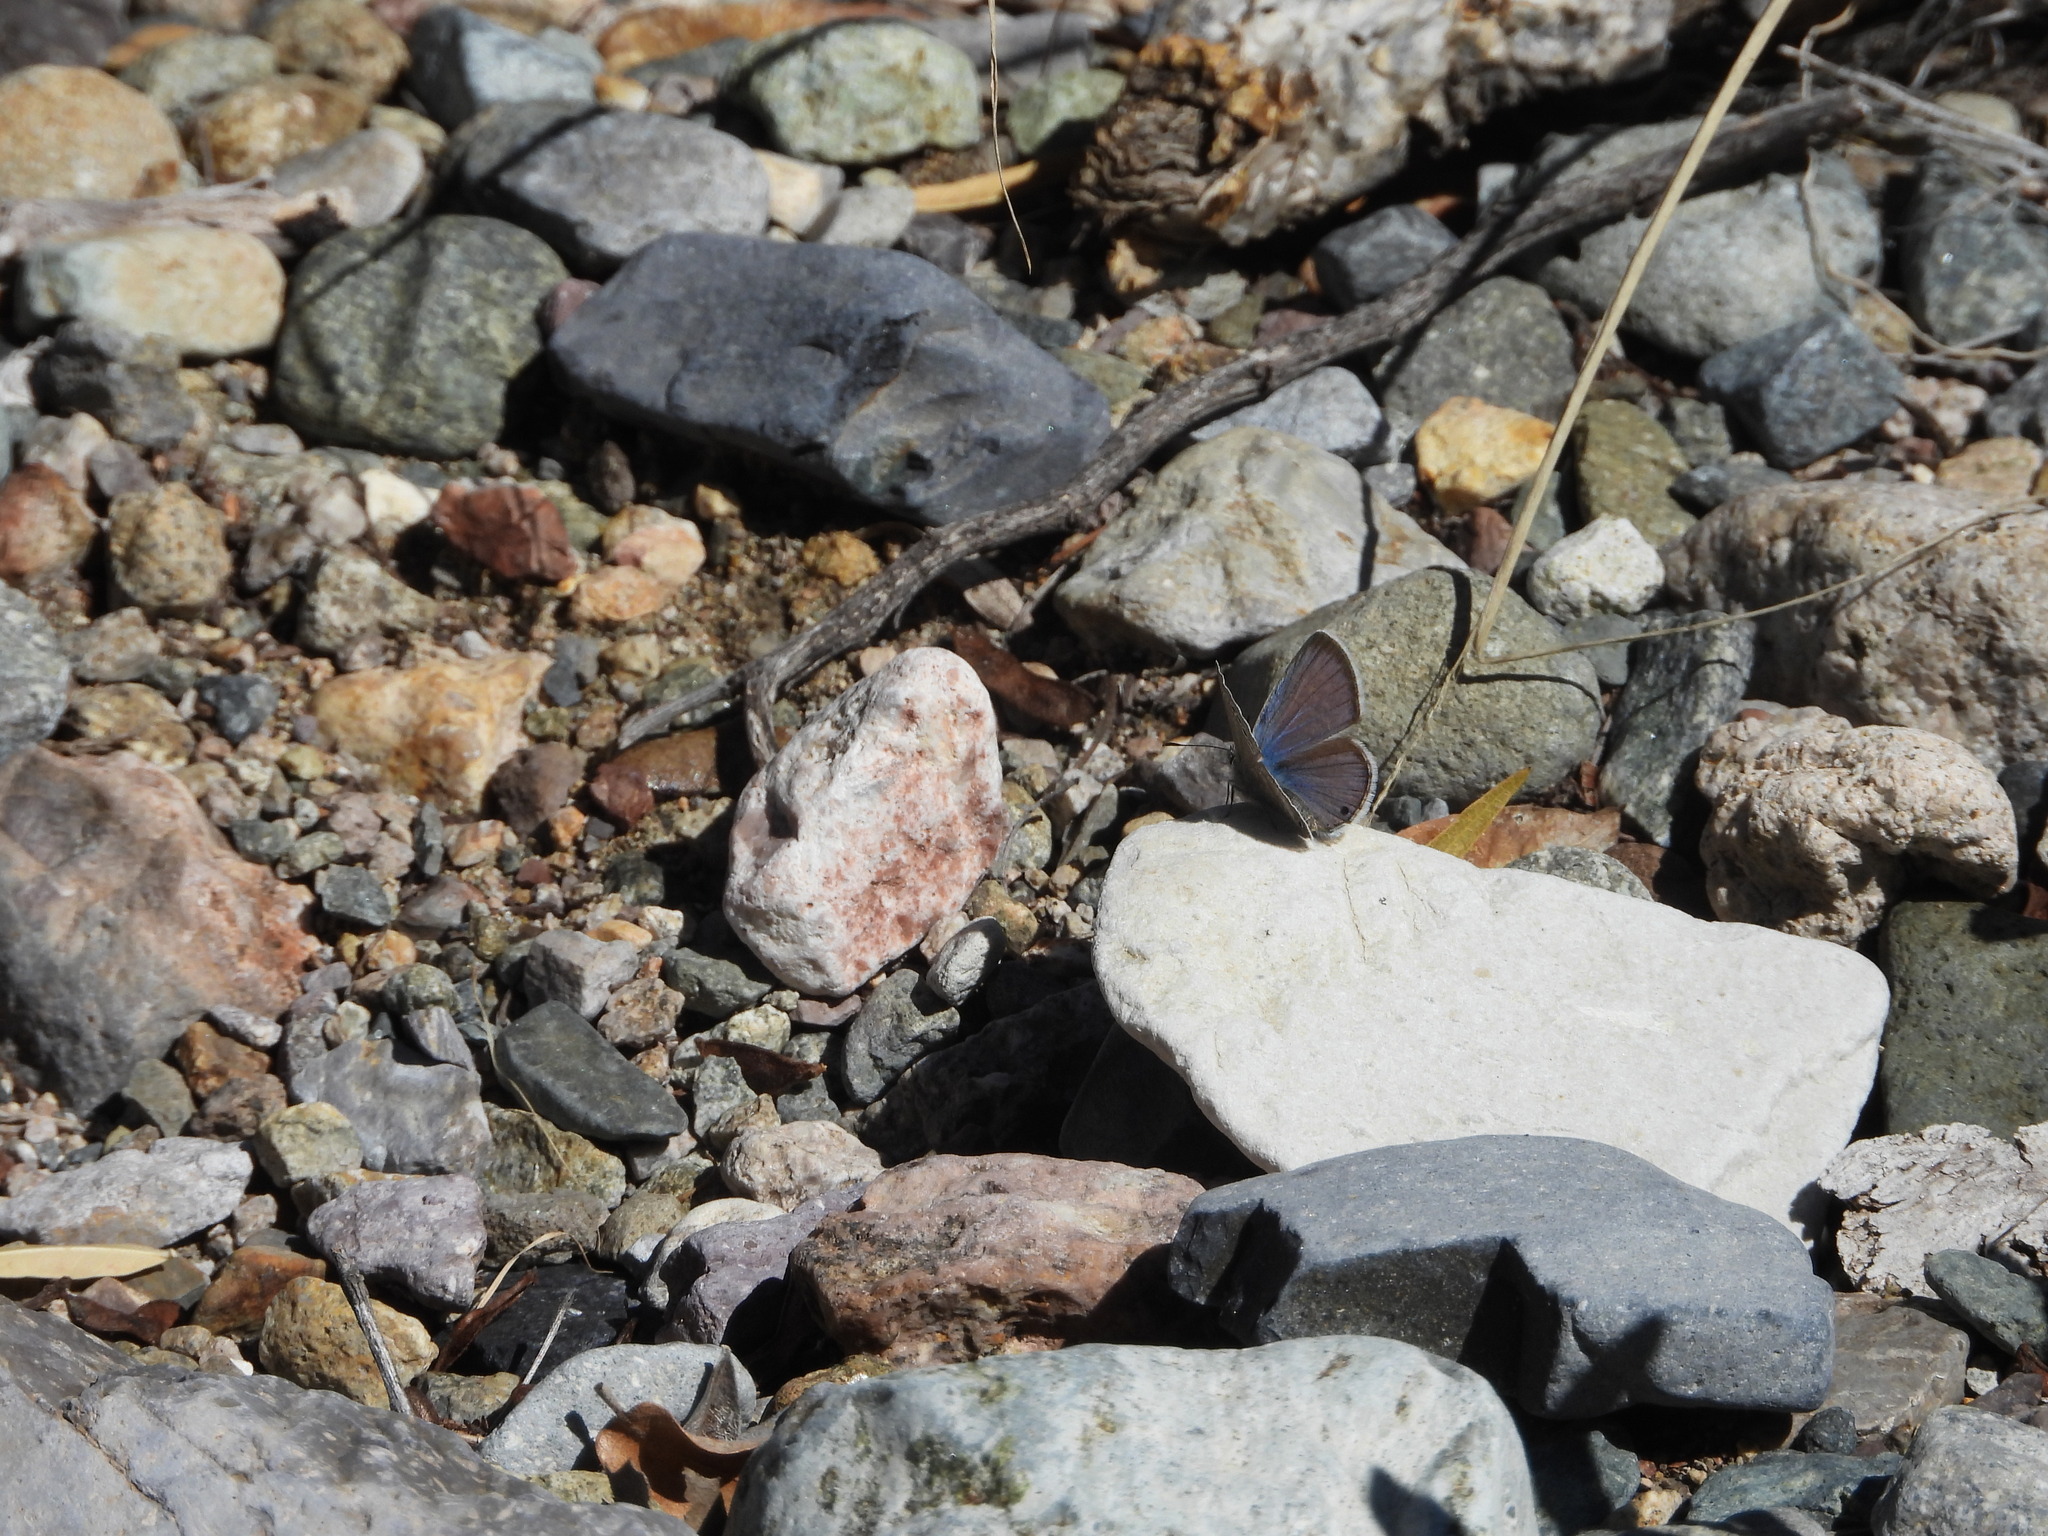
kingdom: Animalia
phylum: Arthropoda
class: Insecta
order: Lepidoptera
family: Lycaenidae
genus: Echinargus
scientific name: Echinargus isola
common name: Reakirt's blue
